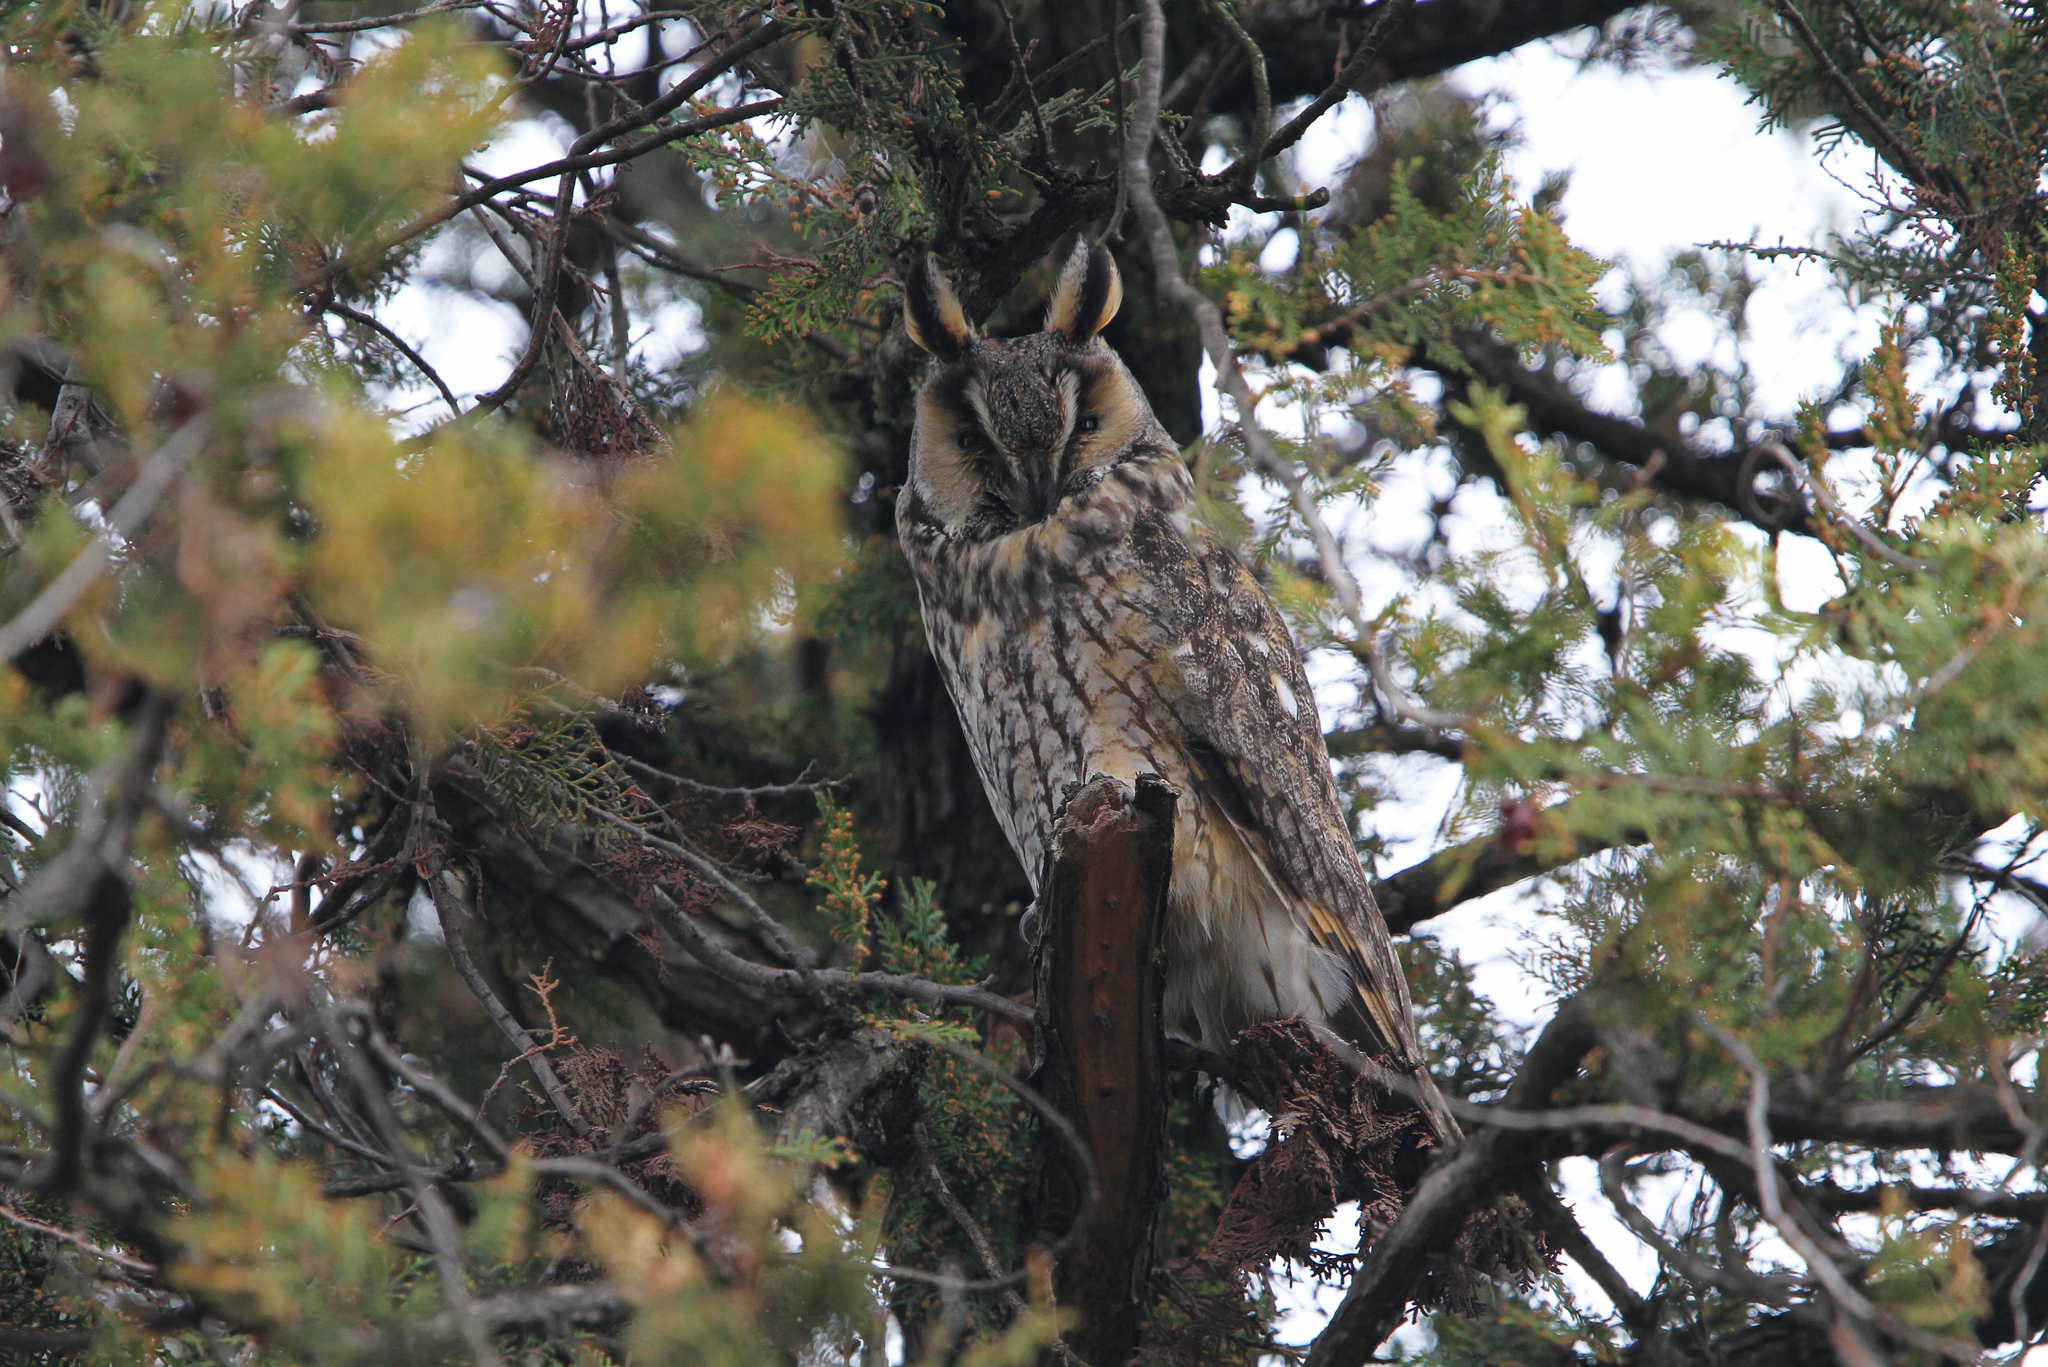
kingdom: Animalia
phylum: Chordata
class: Aves
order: Strigiformes
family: Strigidae
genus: Asio
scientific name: Asio otus
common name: Long-eared owl
